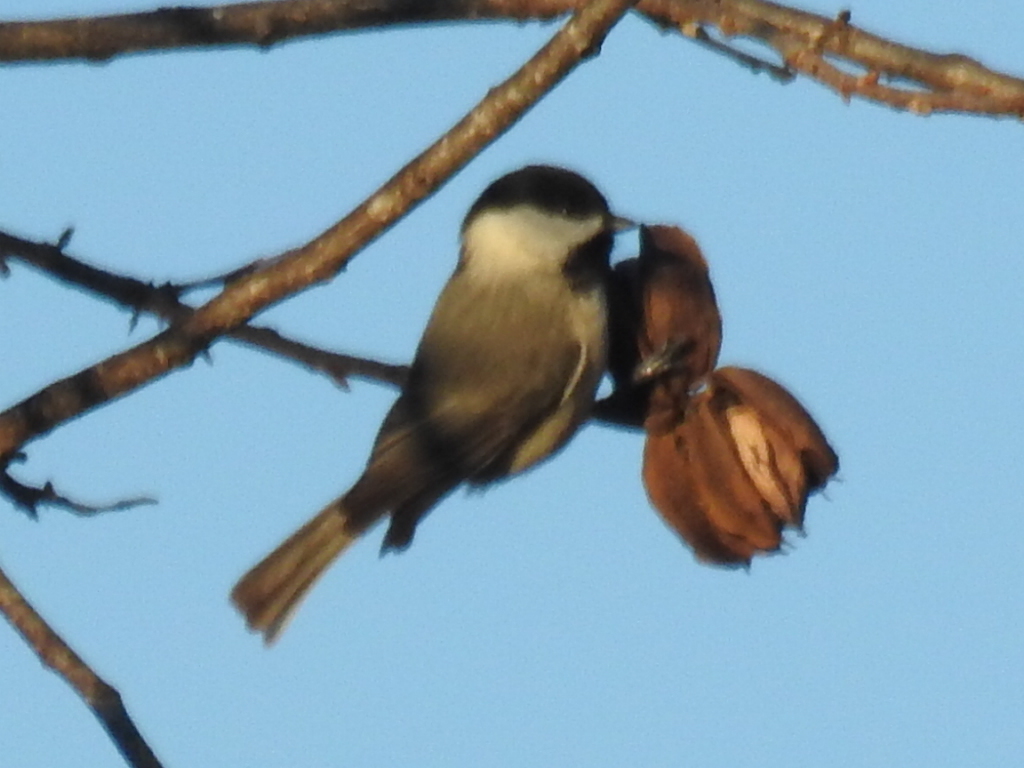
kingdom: Animalia
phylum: Chordata
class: Aves
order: Passeriformes
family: Paridae
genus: Poecile
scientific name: Poecile carolinensis
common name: Carolina chickadee
